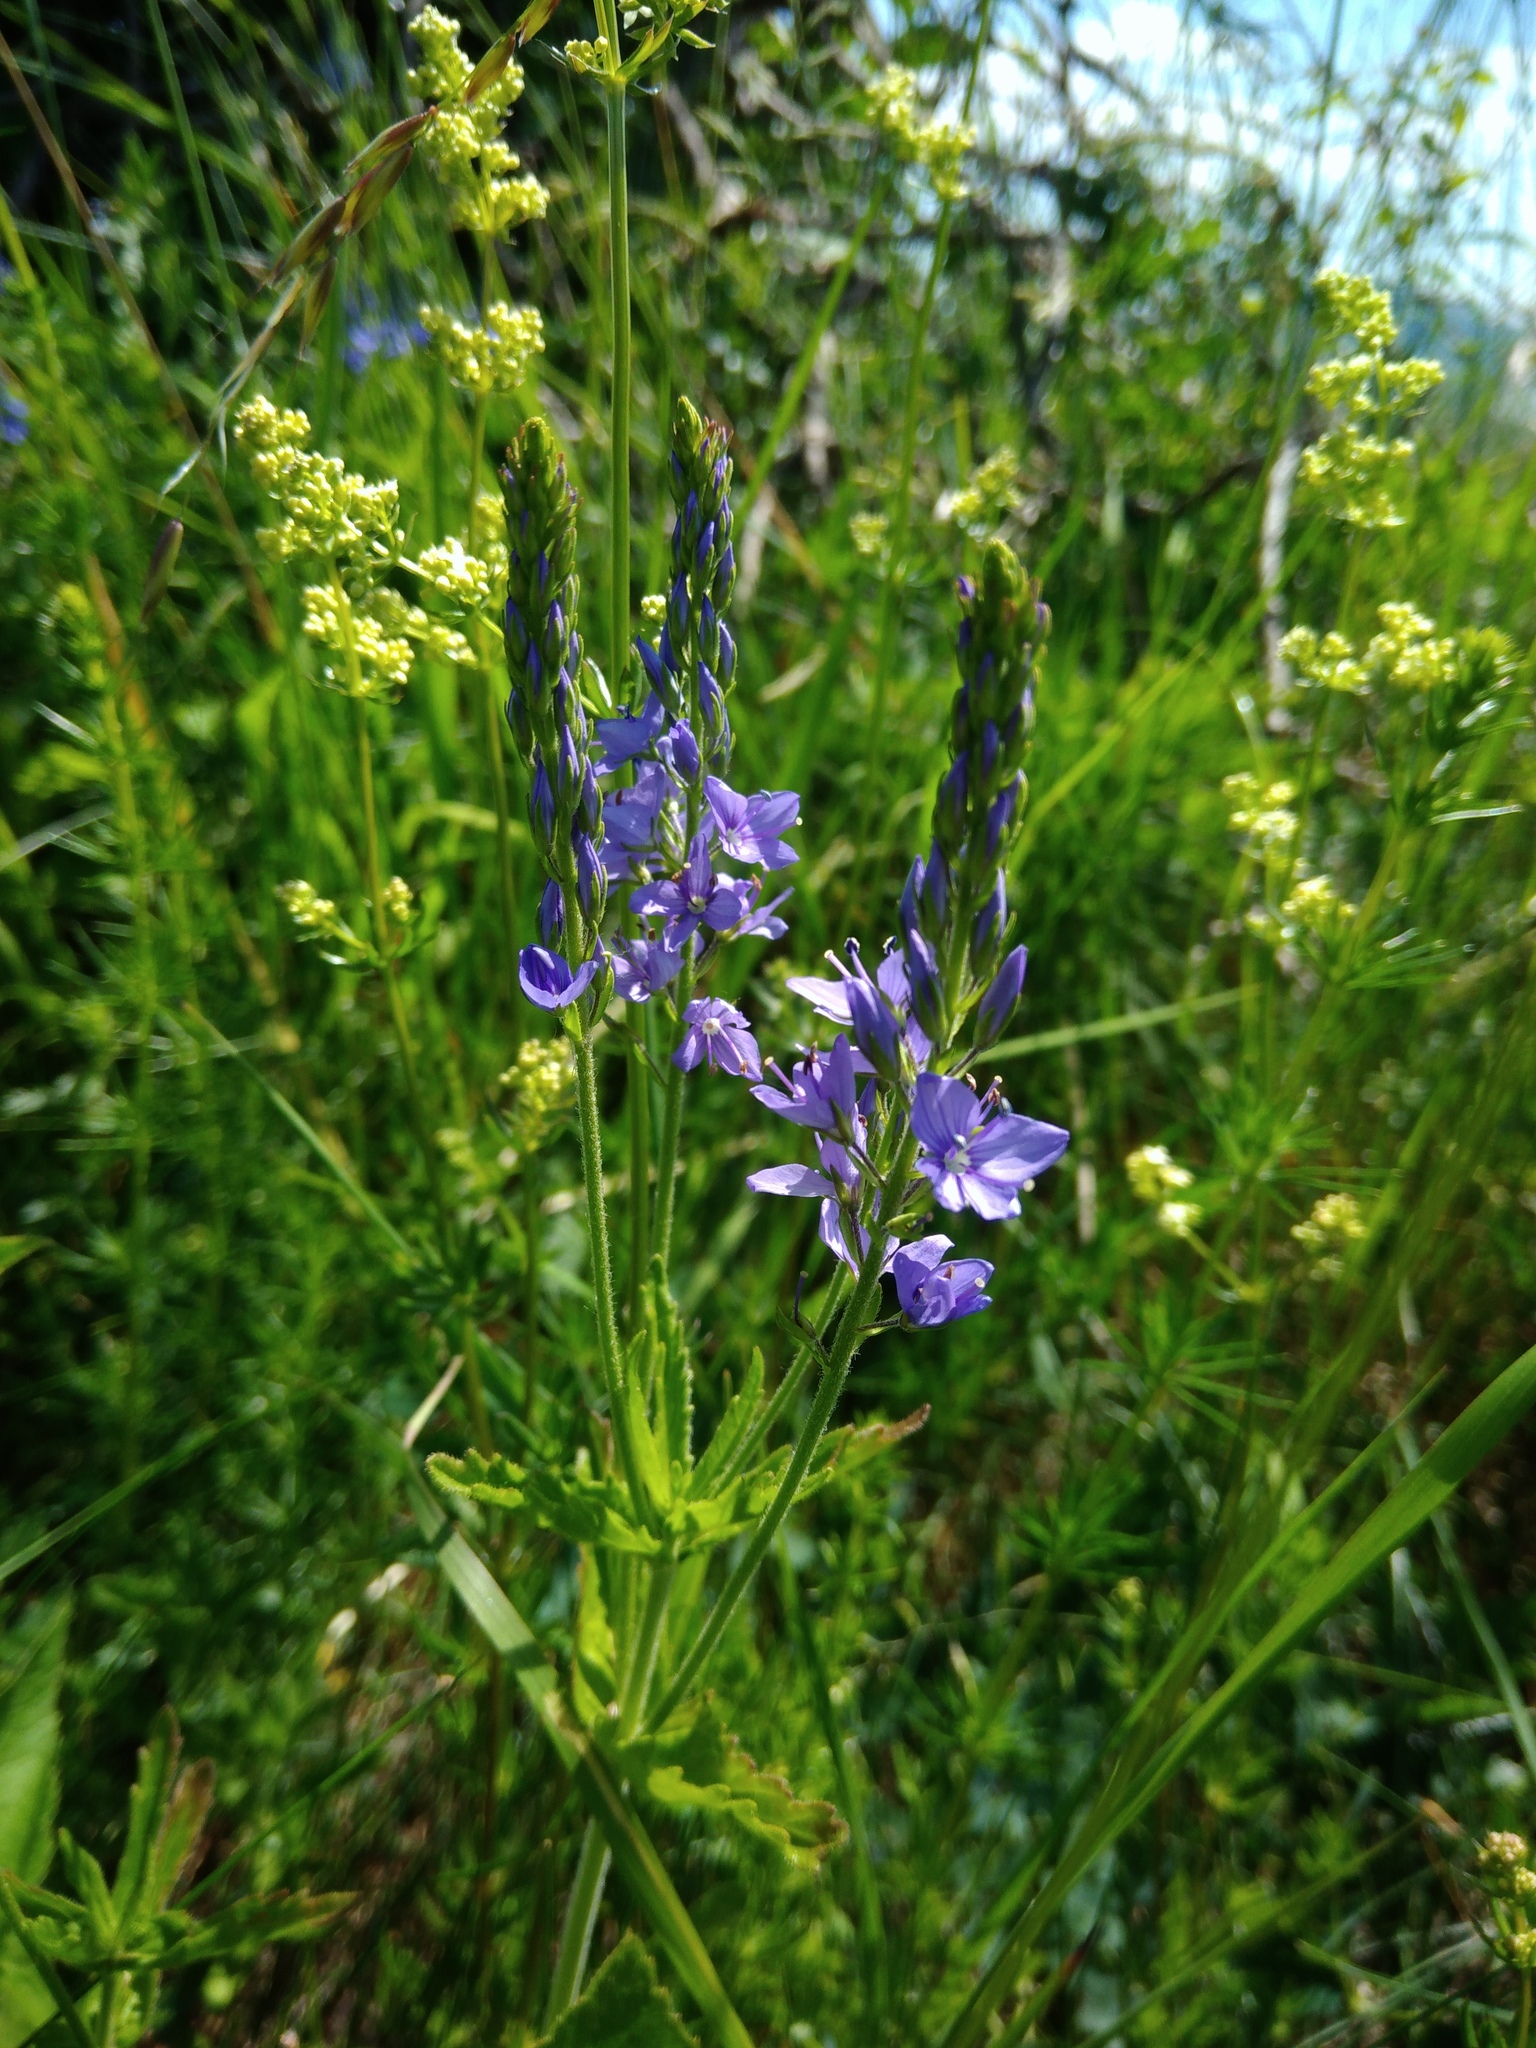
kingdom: Plantae
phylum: Tracheophyta
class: Magnoliopsida
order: Lamiales
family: Plantaginaceae
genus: Veronica
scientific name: Veronica teucrium
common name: Large speedwell
